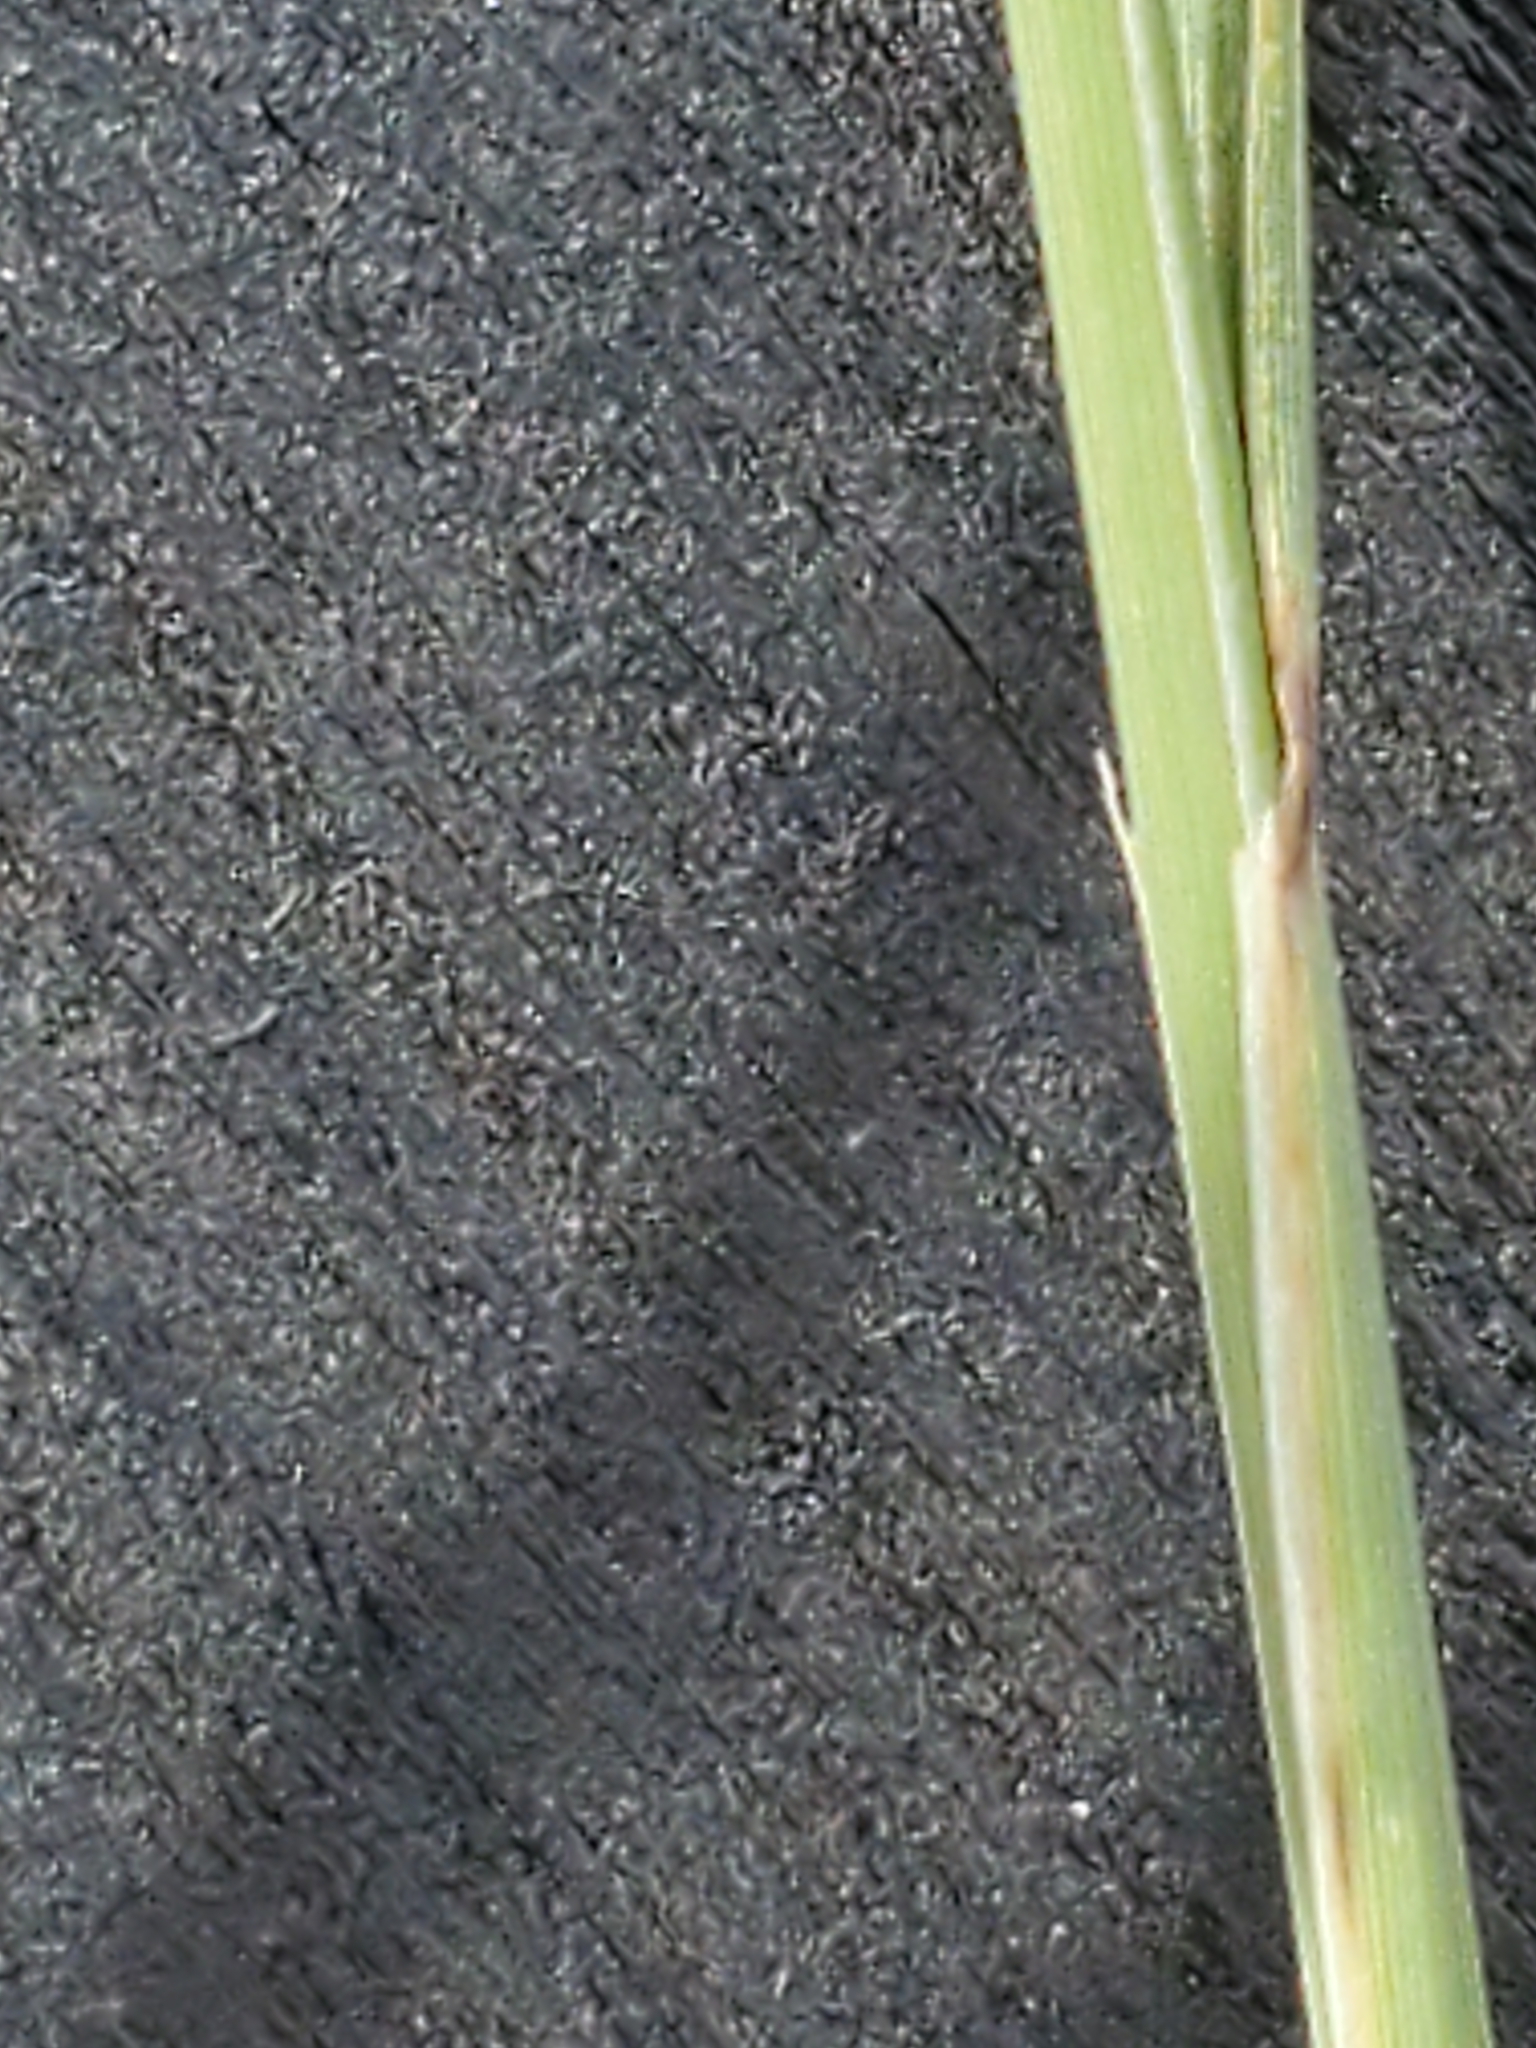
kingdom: Plantae
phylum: Tracheophyta
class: Liliopsida
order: Poales
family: Poaceae
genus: Tridentopsis
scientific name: Tridentopsis mutica
